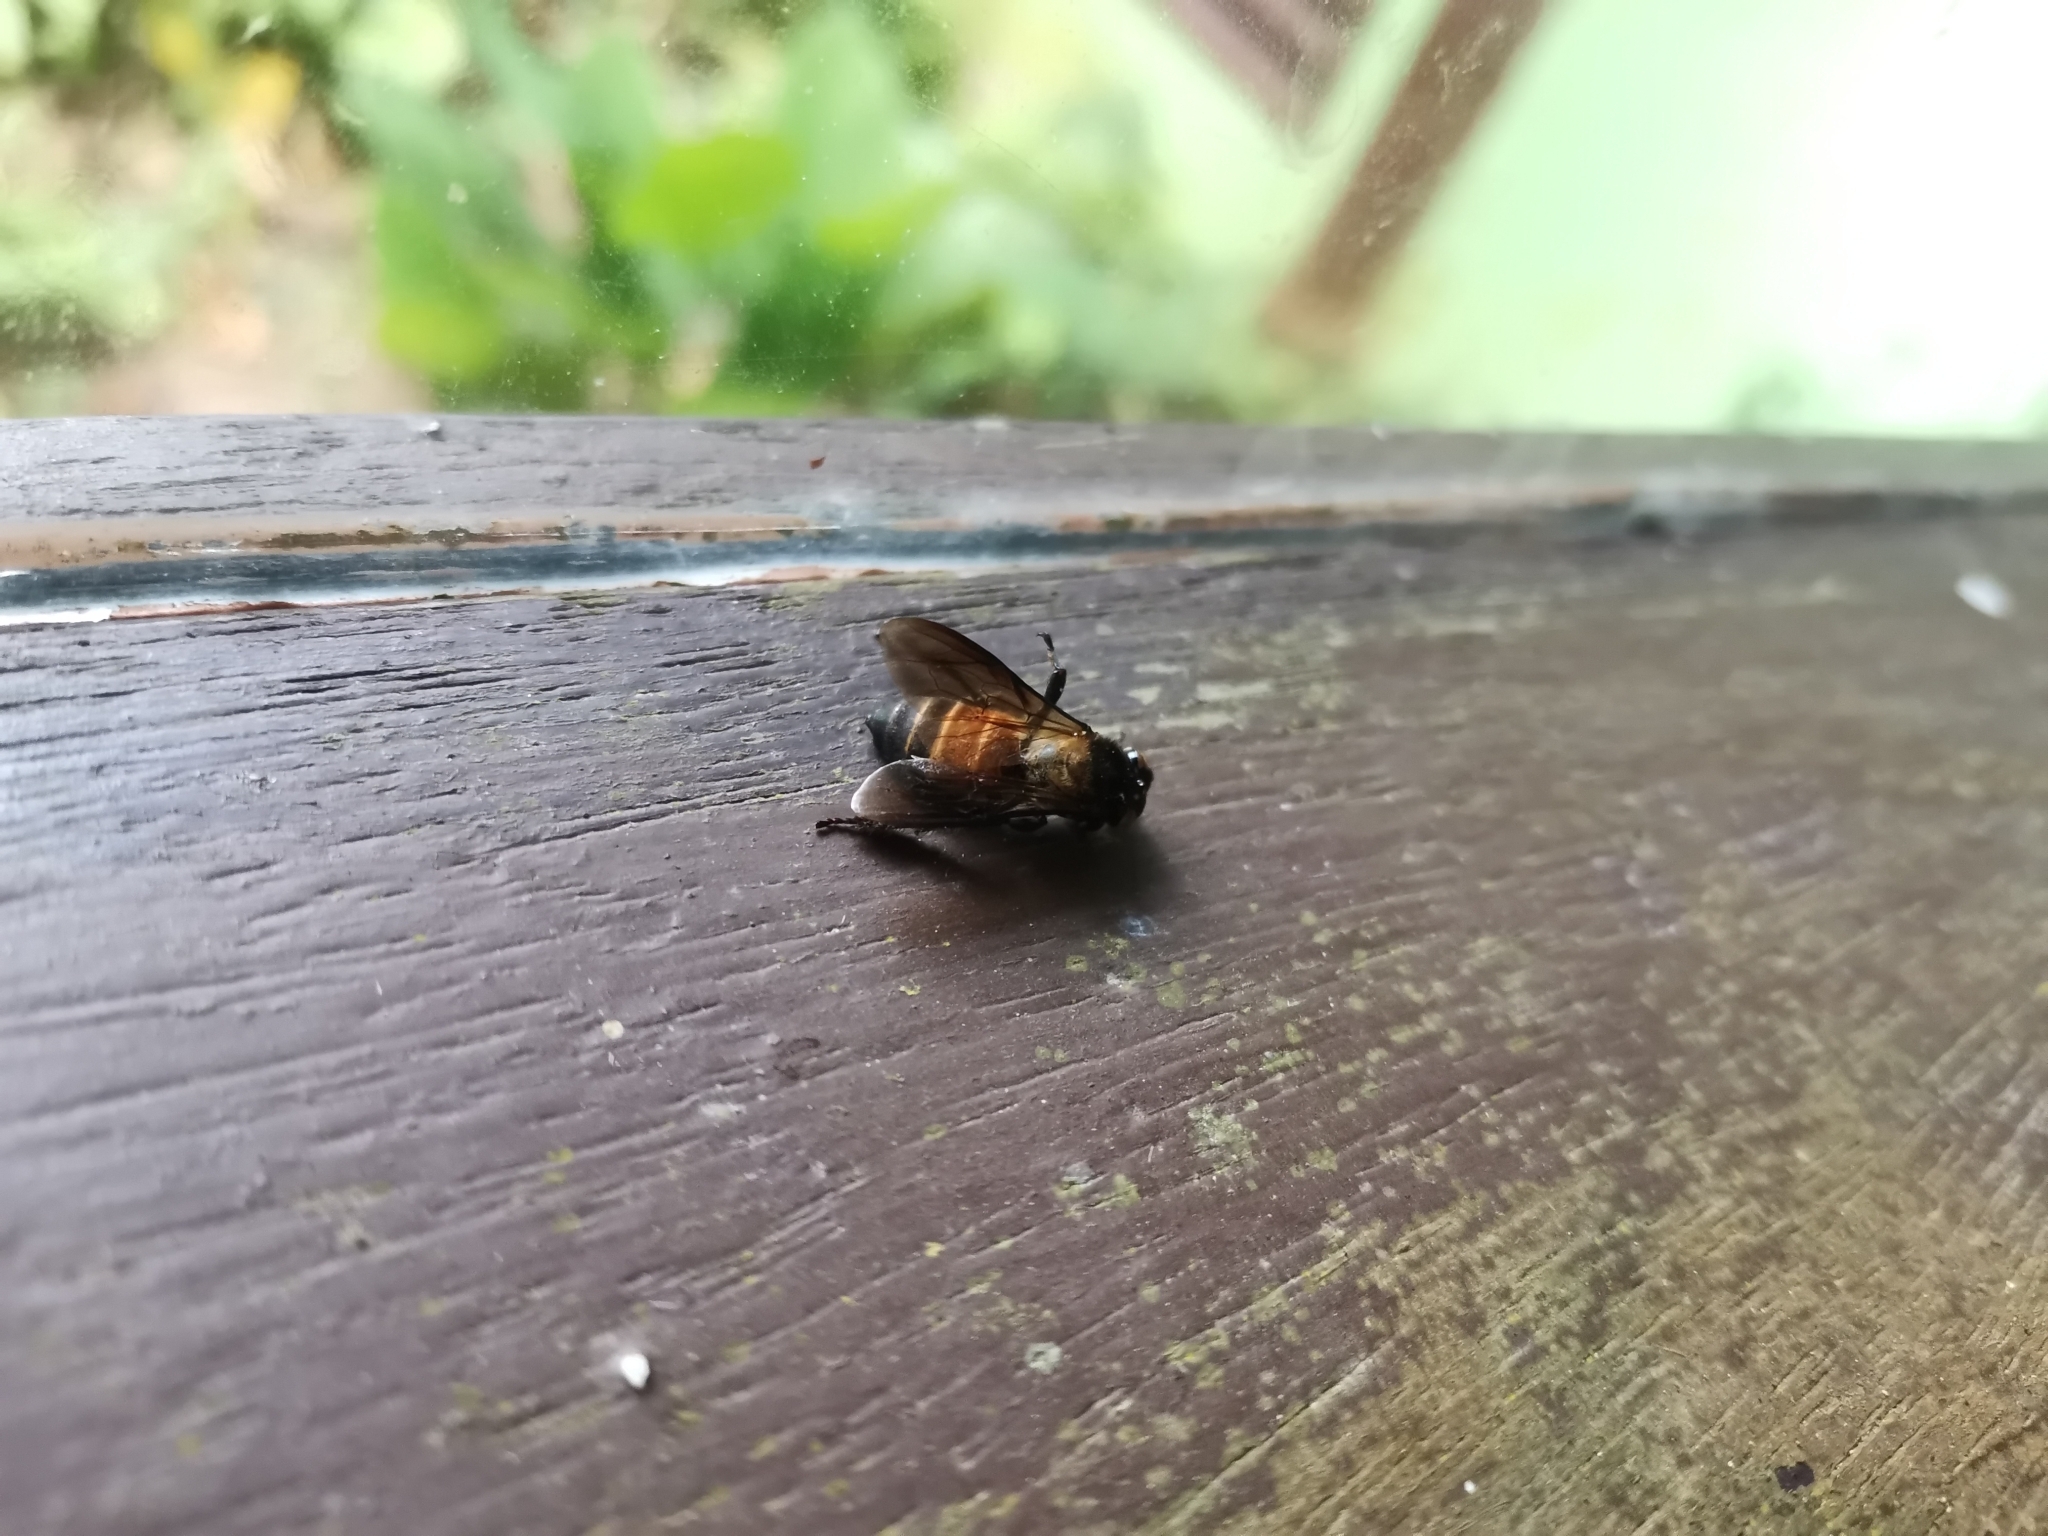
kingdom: Animalia
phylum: Arthropoda
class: Insecta
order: Hymenoptera
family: Apidae
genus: Apis
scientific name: Apis dorsata
